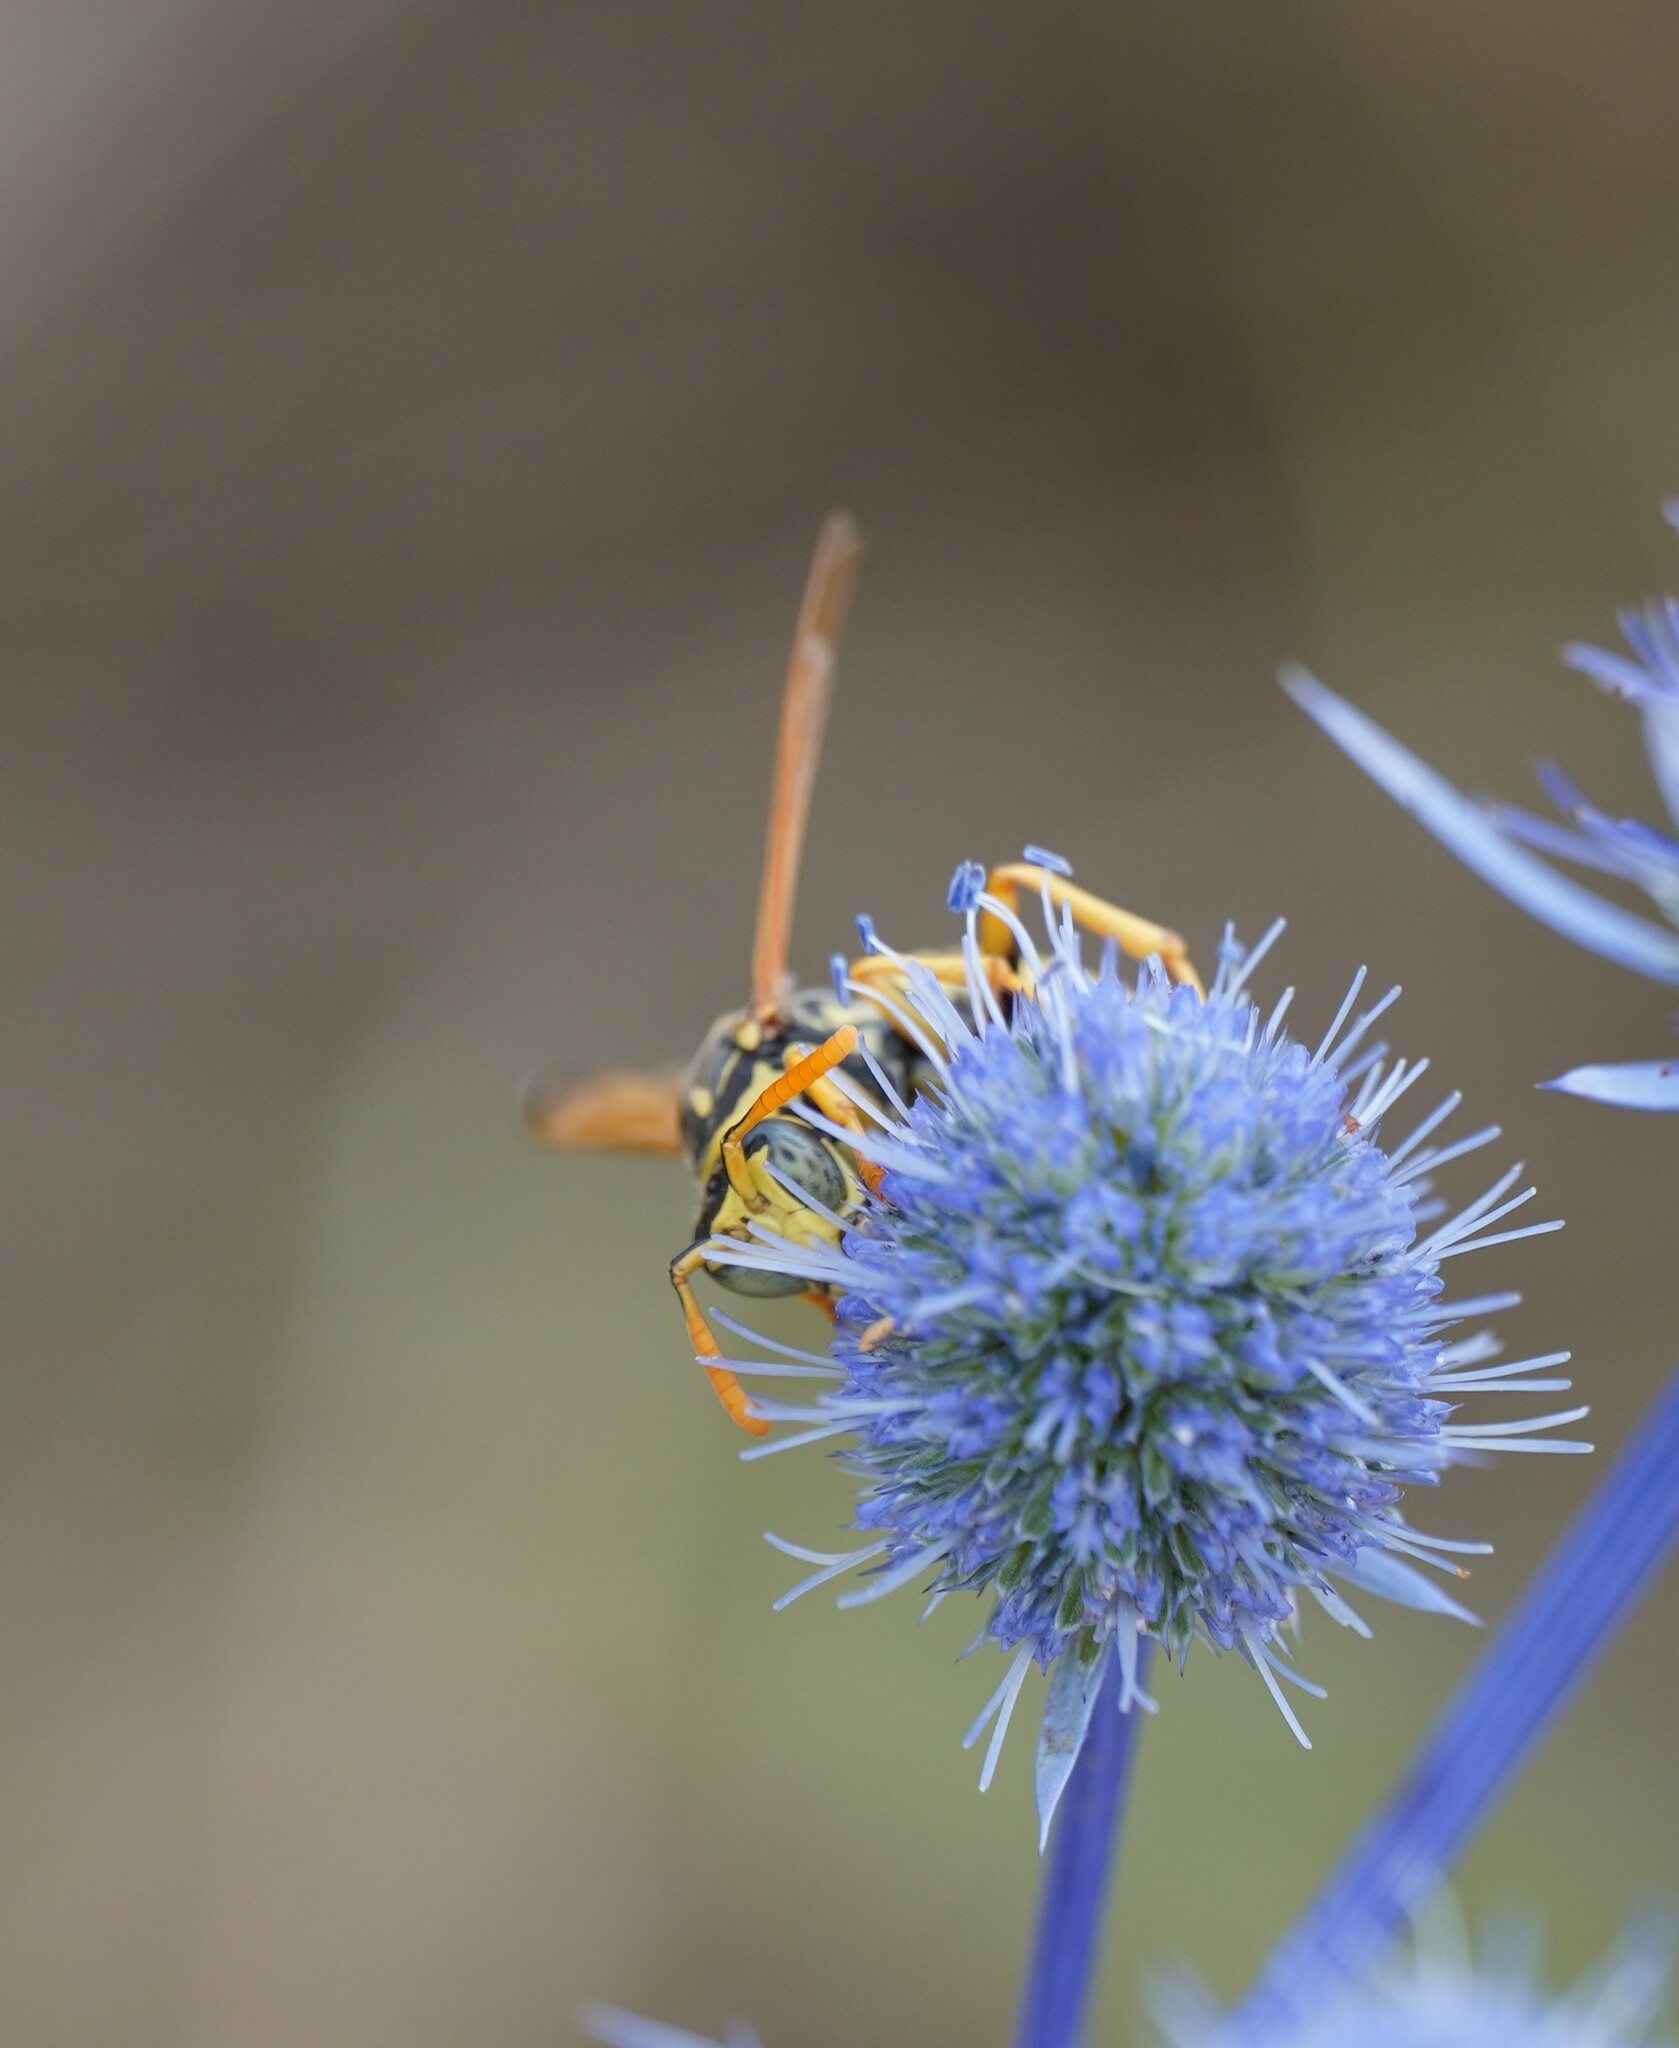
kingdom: Animalia
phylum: Arthropoda
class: Insecta
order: Hymenoptera
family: Eumenidae
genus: Polistes
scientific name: Polistes dominula
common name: Paper wasp
